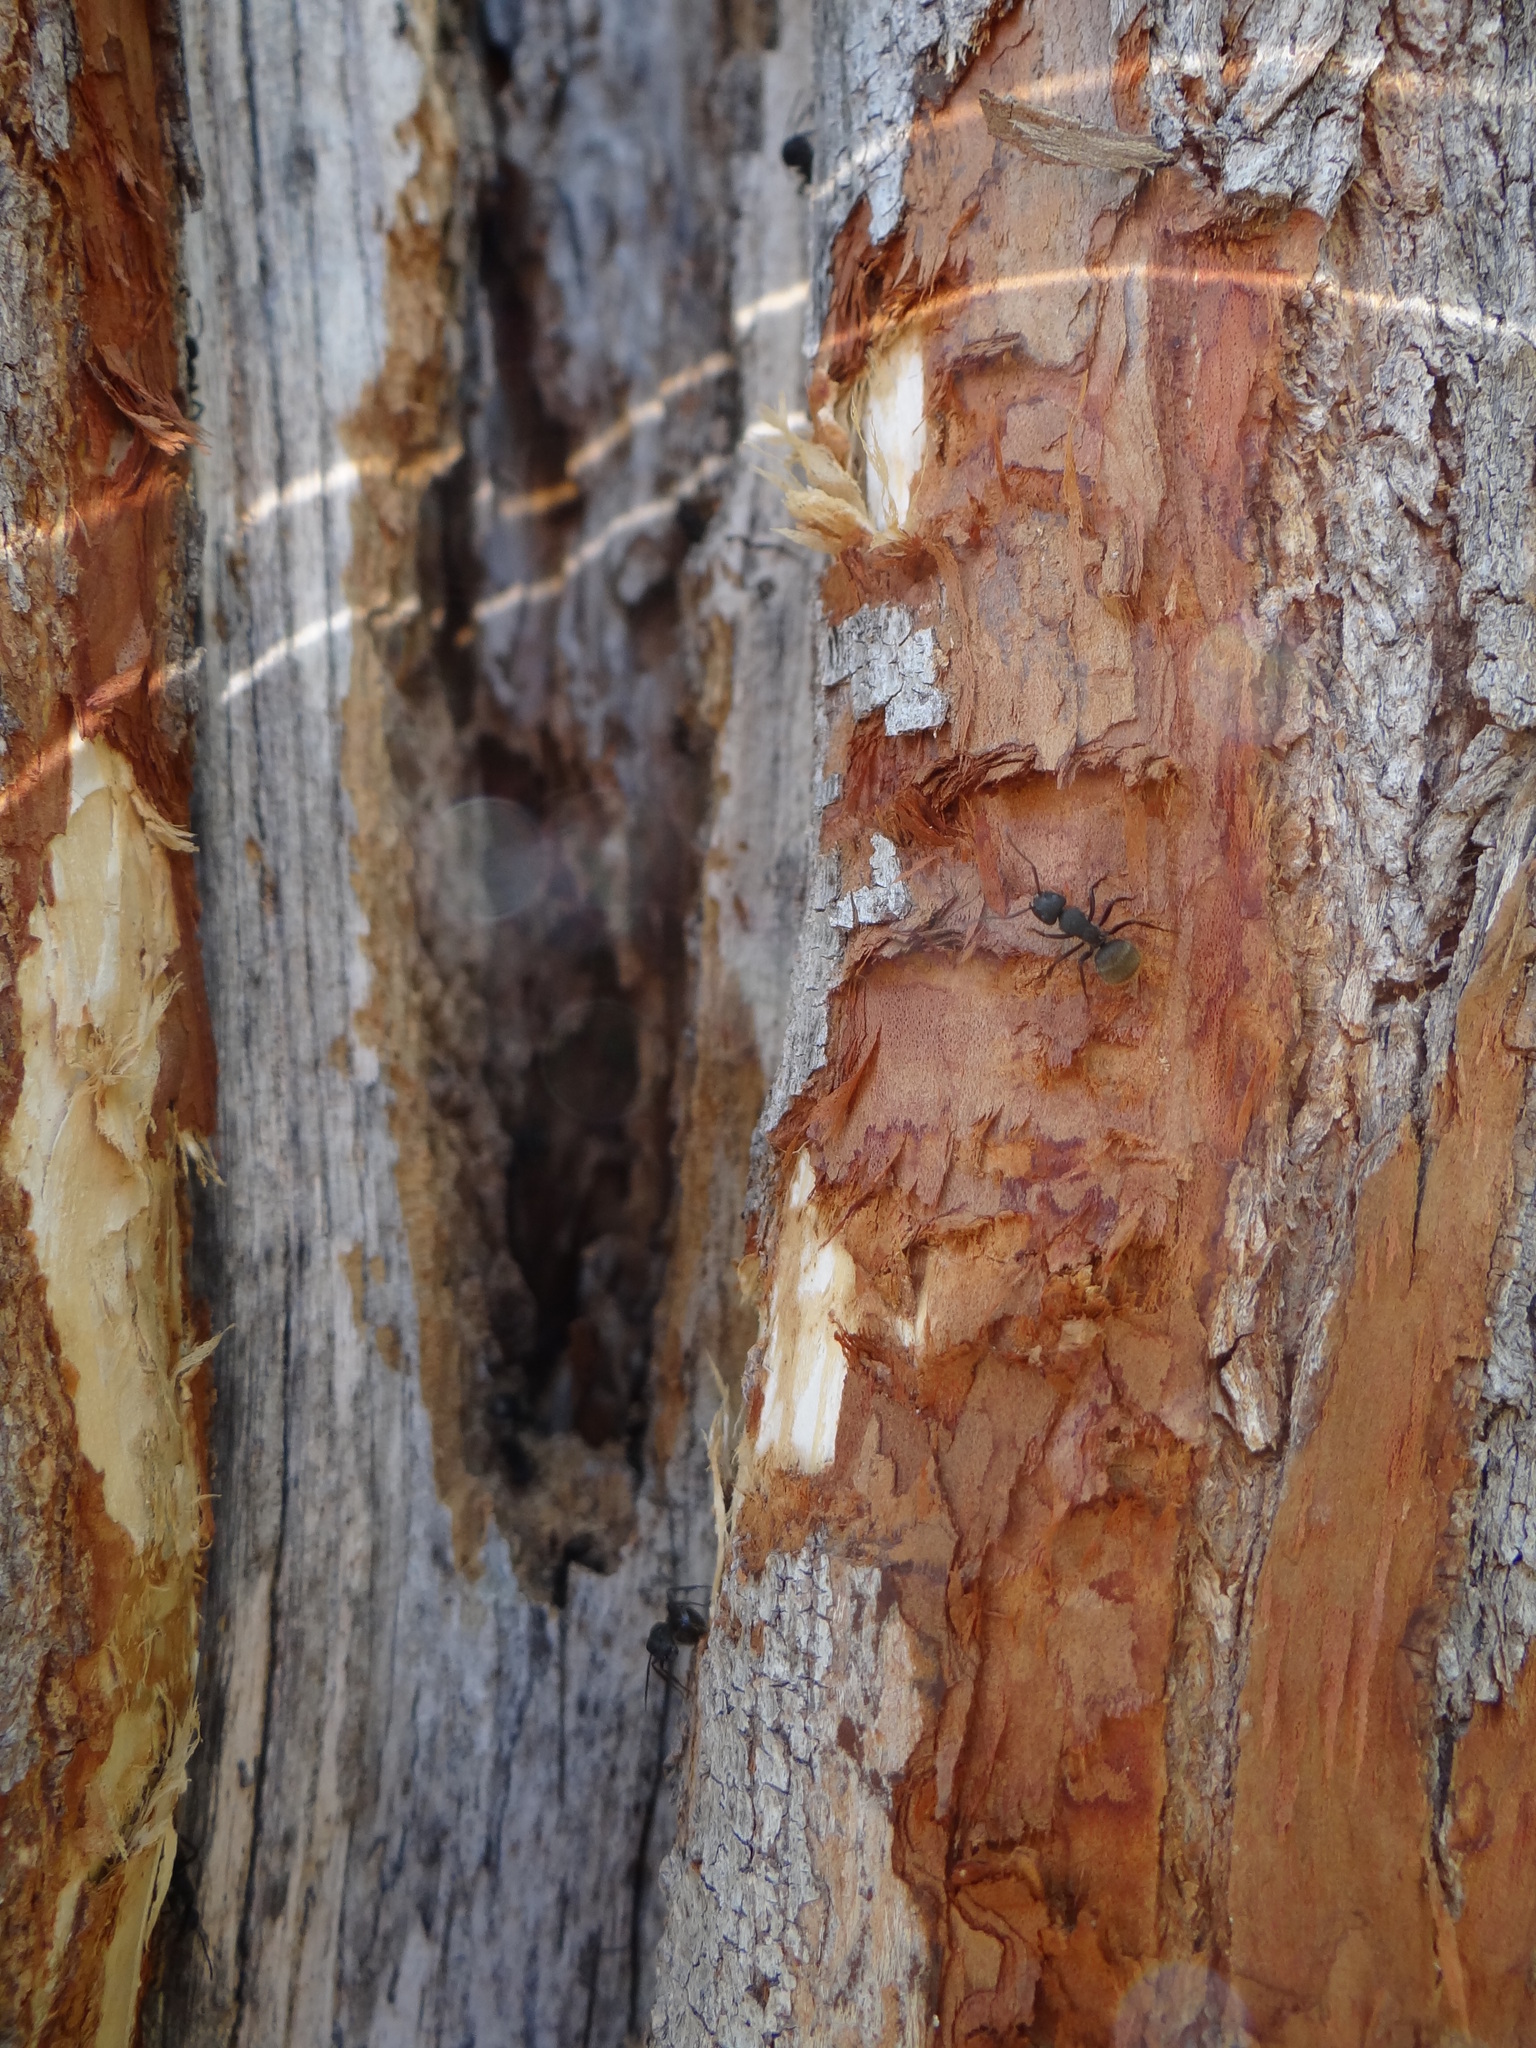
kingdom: Animalia
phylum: Arthropoda
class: Insecta
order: Hymenoptera
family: Formicidae
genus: Camponotus
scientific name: Camponotus mus
